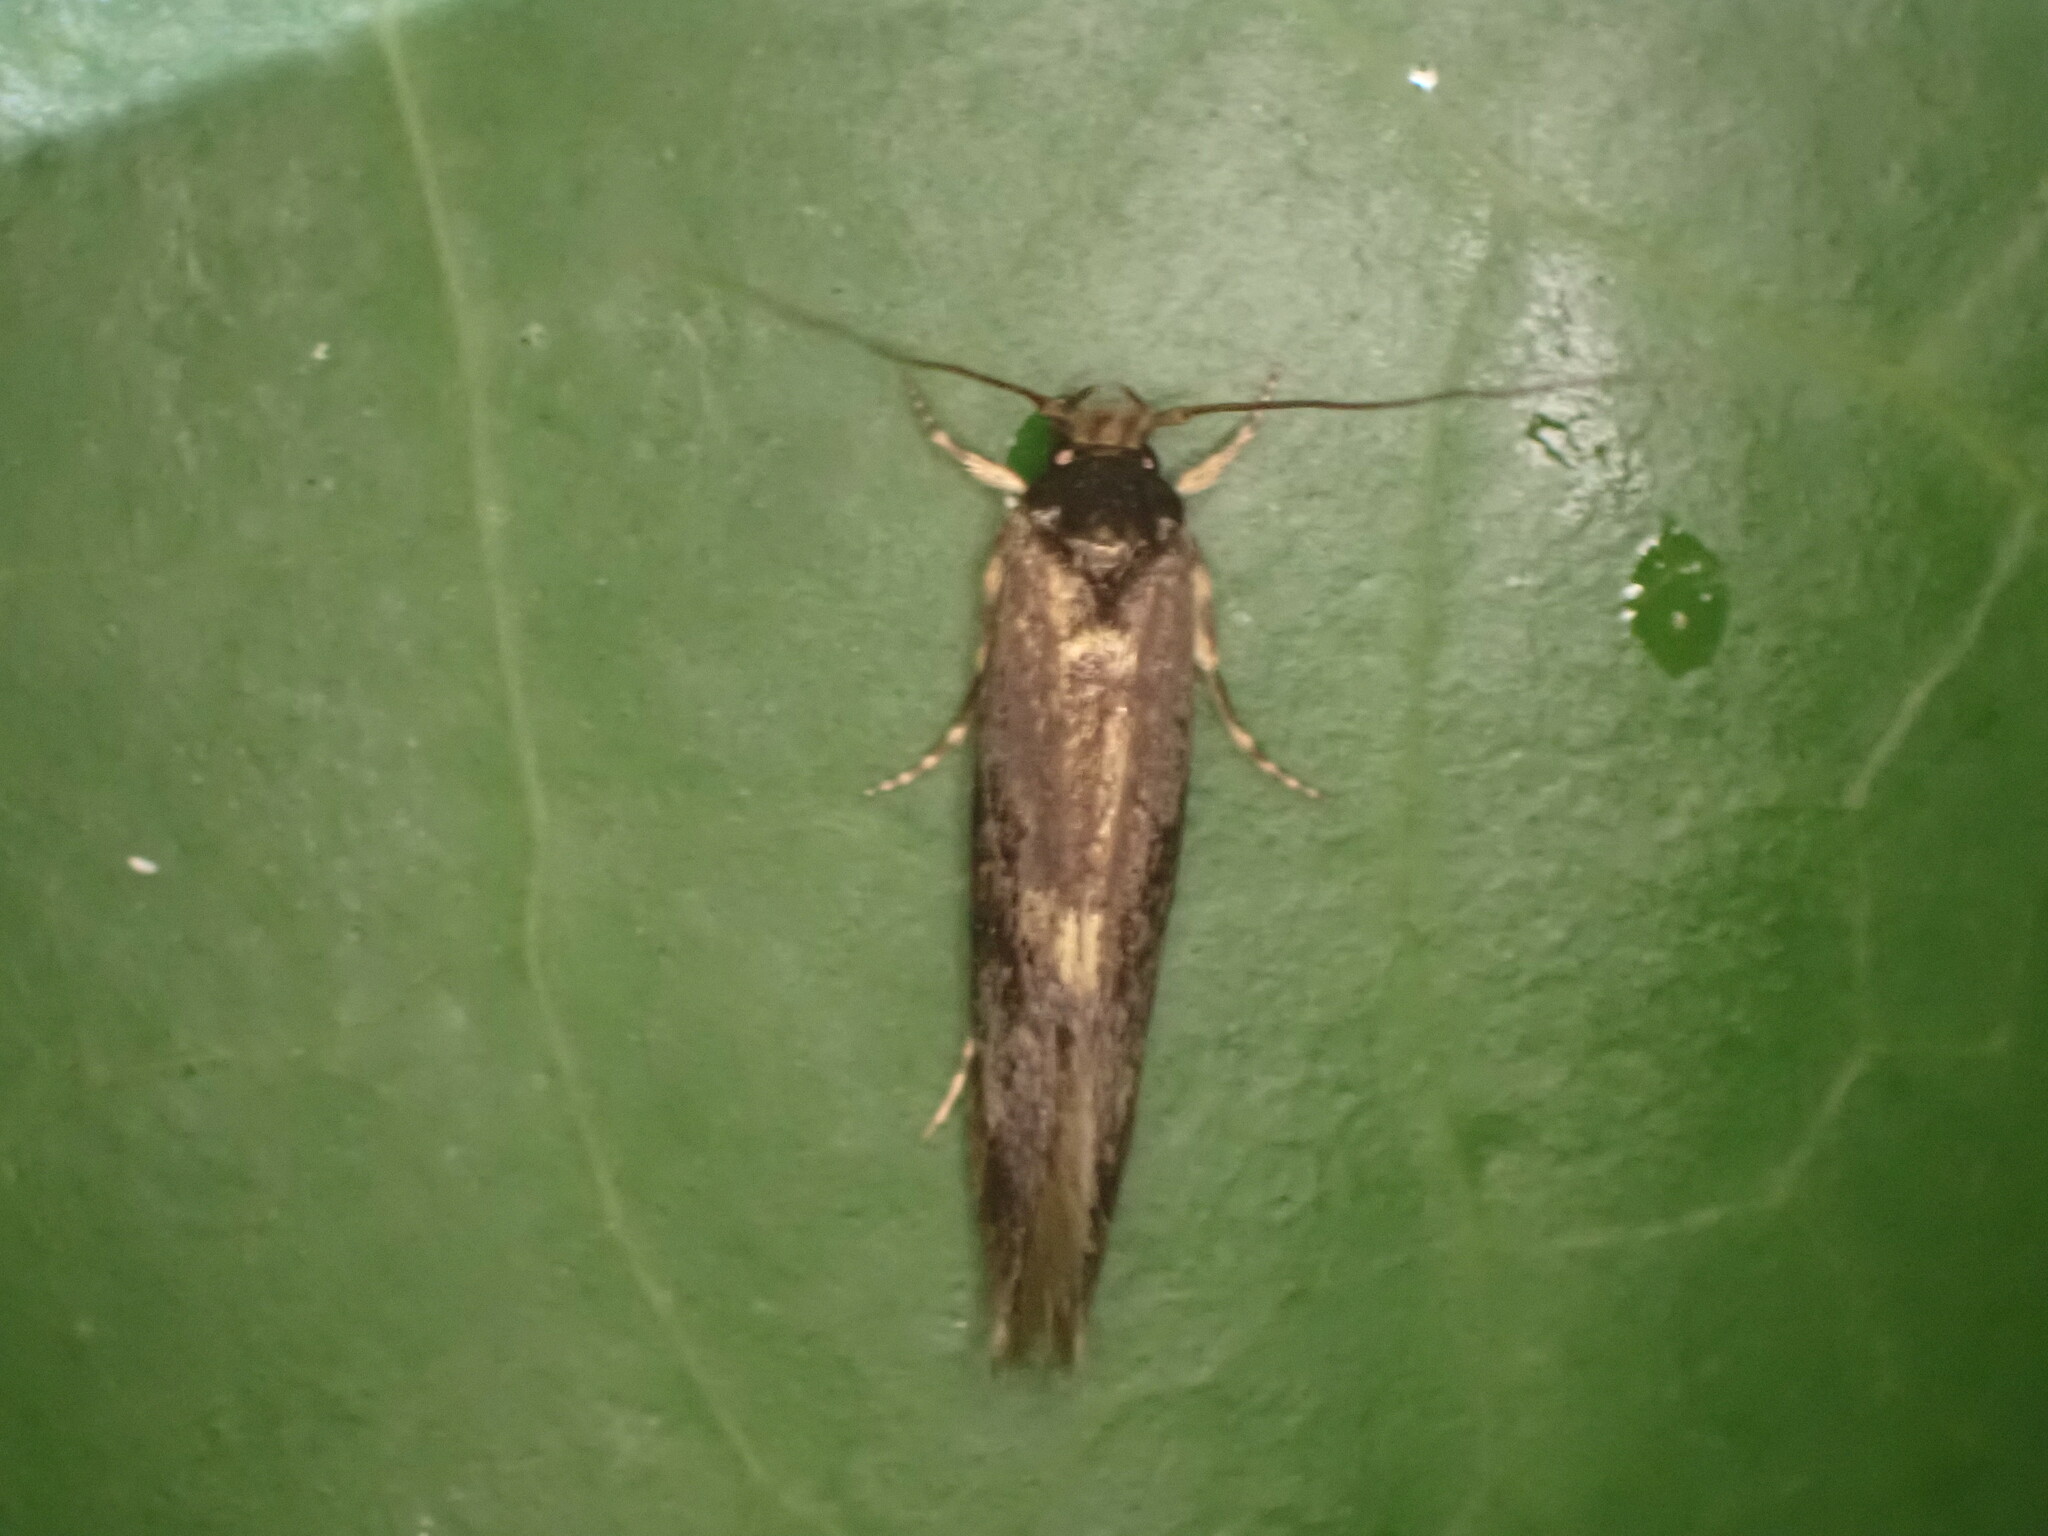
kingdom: Animalia
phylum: Arthropoda
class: Insecta
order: Lepidoptera
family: Tineidae
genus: Opogona
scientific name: Opogona omoscopa
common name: Moth
